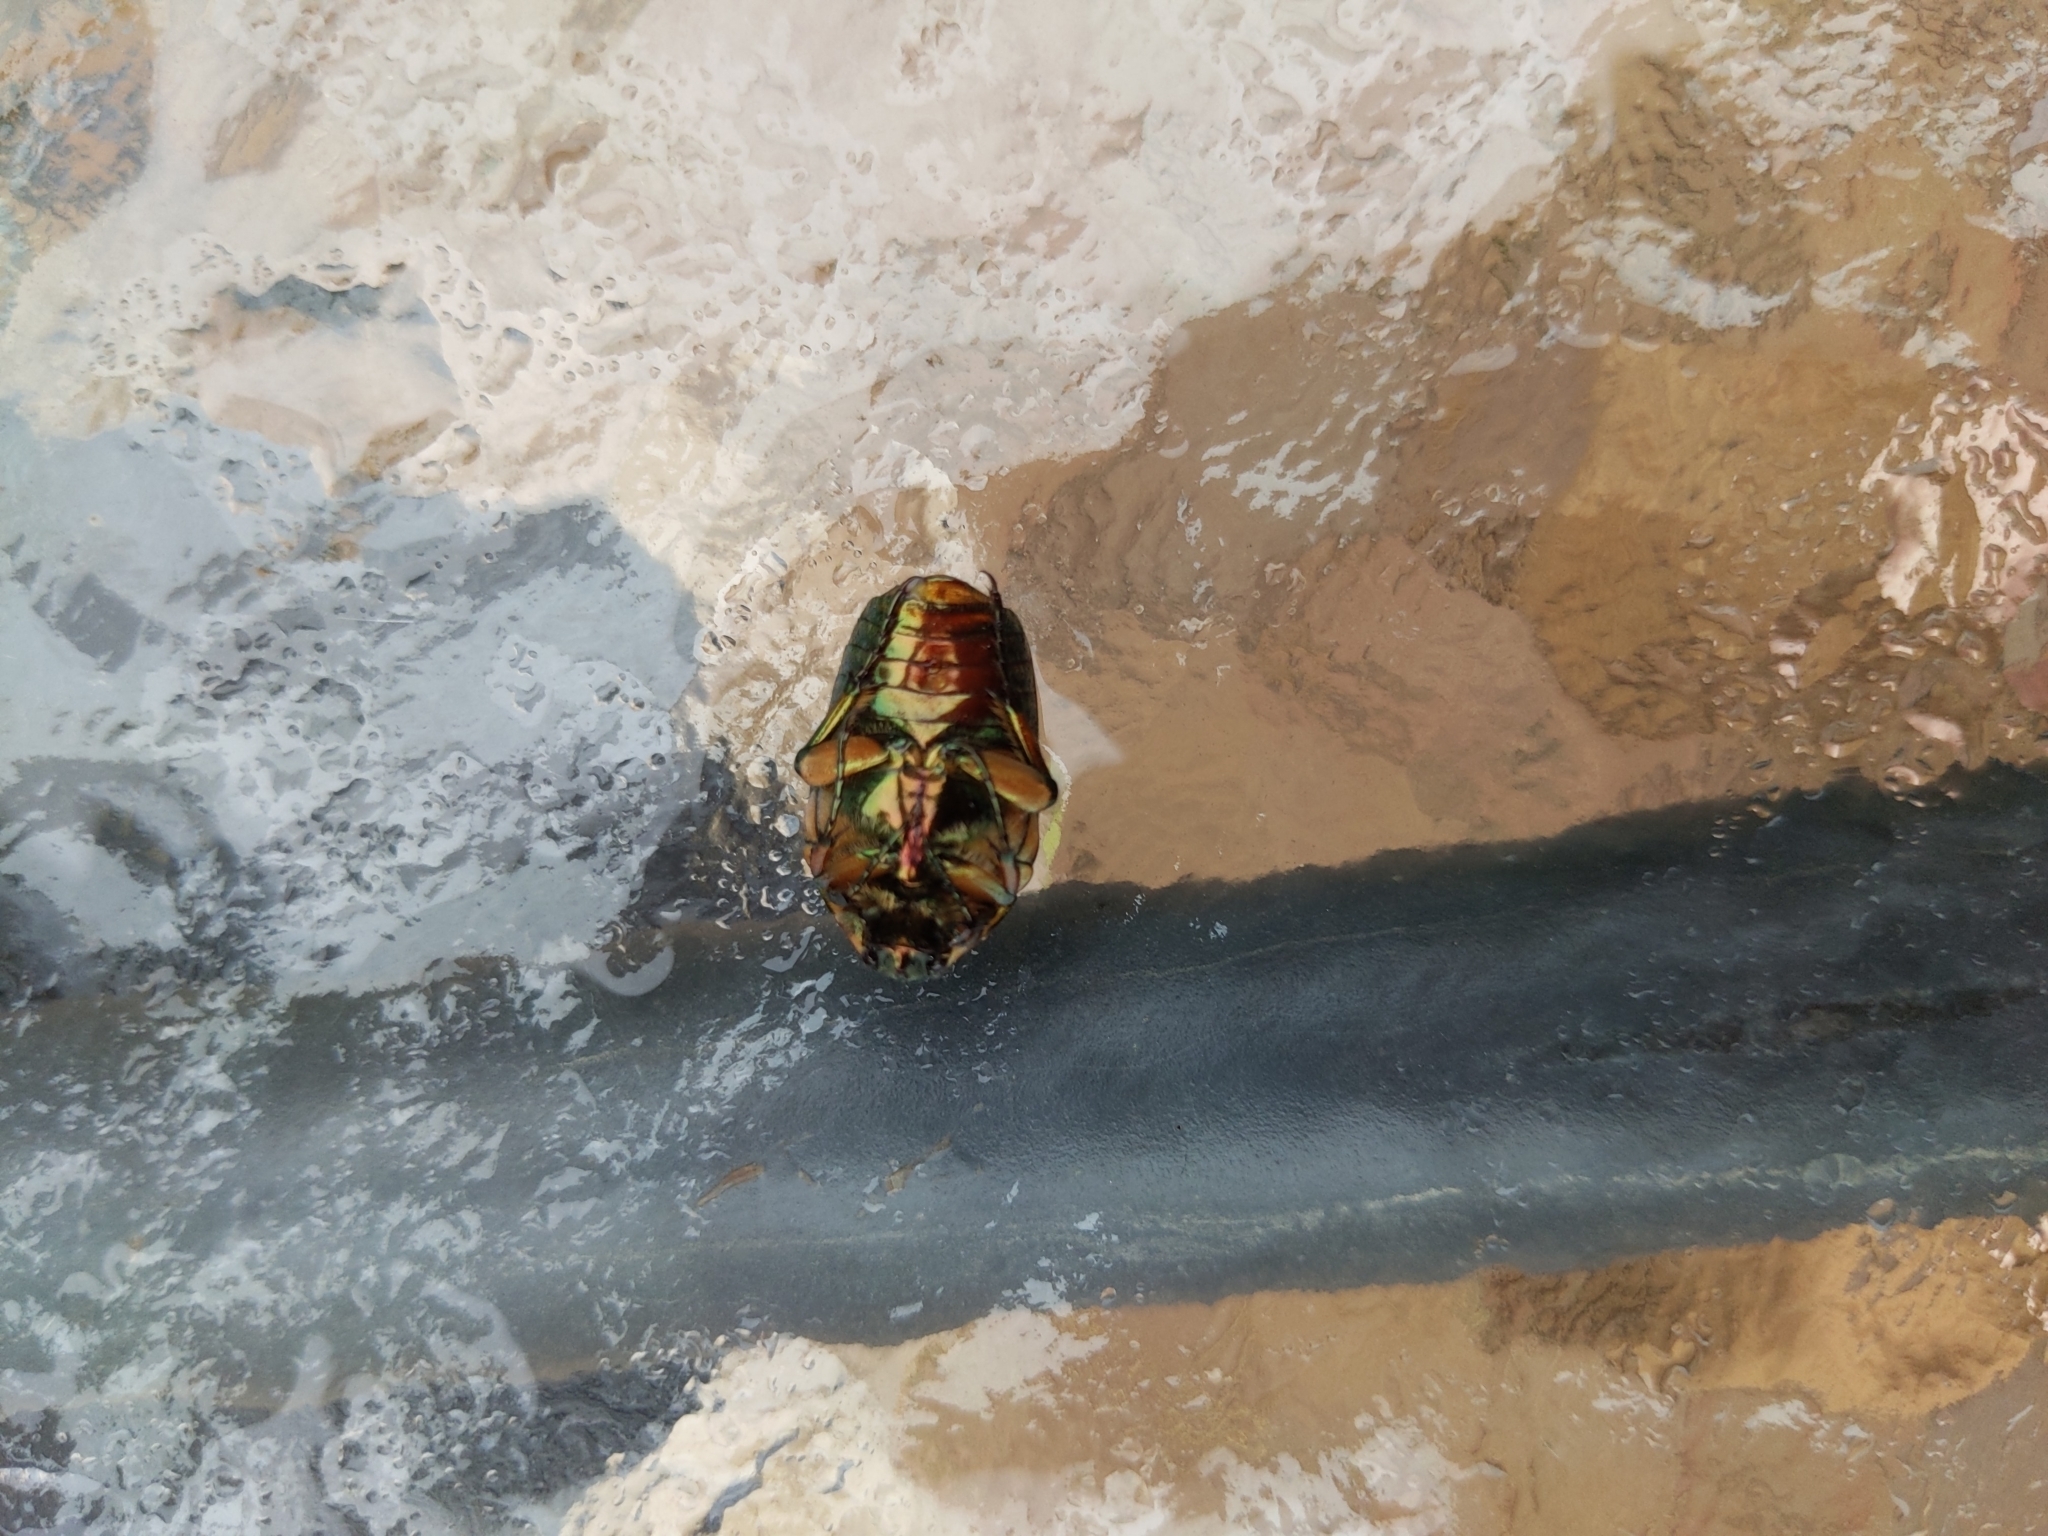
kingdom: Animalia
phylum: Arthropoda
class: Insecta
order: Coleoptera
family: Scarabaeidae
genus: Cotinis
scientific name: Cotinis nitida
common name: Common green june beetle
